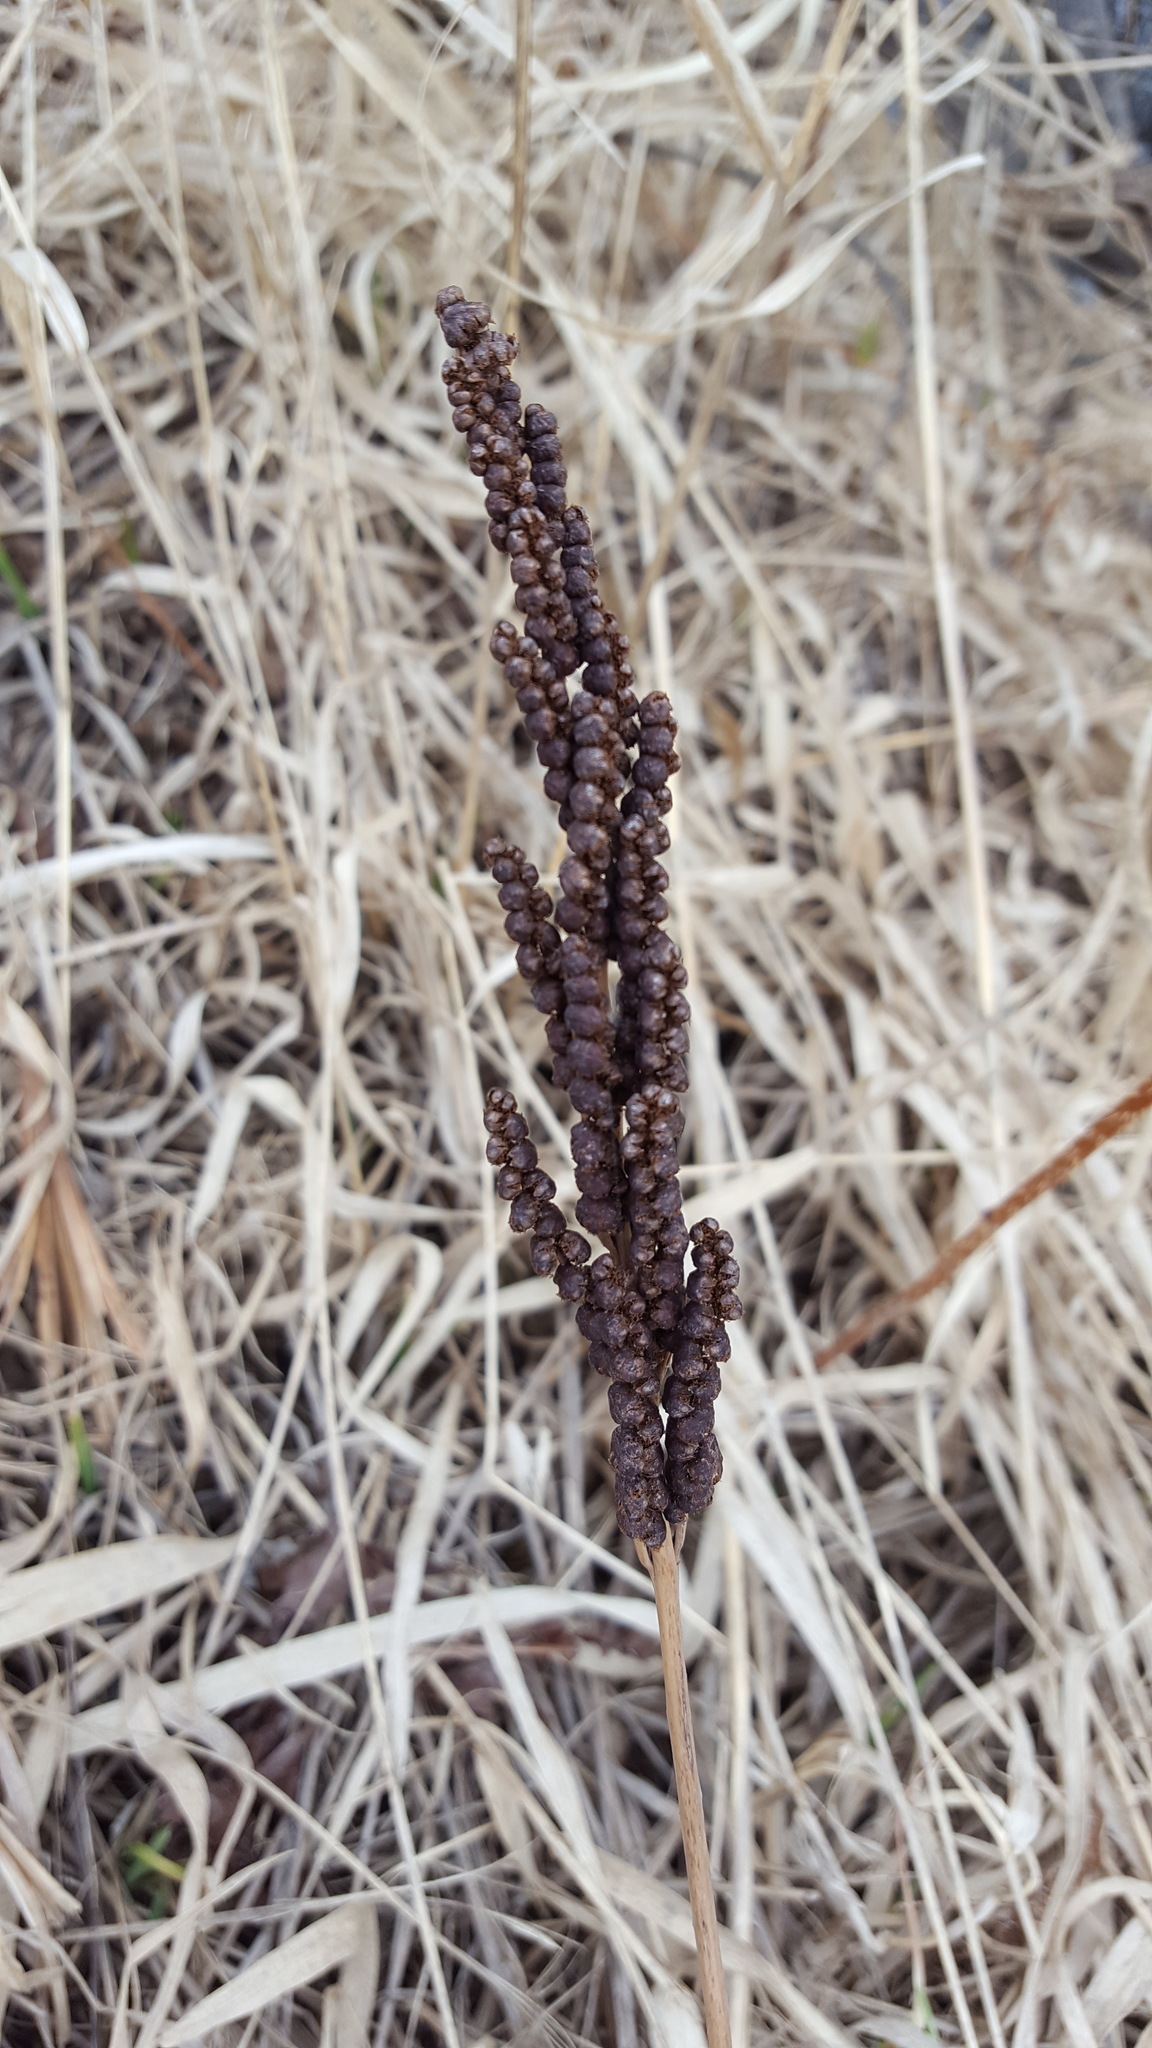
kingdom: Plantae
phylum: Tracheophyta
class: Polypodiopsida
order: Polypodiales
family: Onocleaceae
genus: Onoclea
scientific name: Onoclea sensibilis
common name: Sensitive fern
